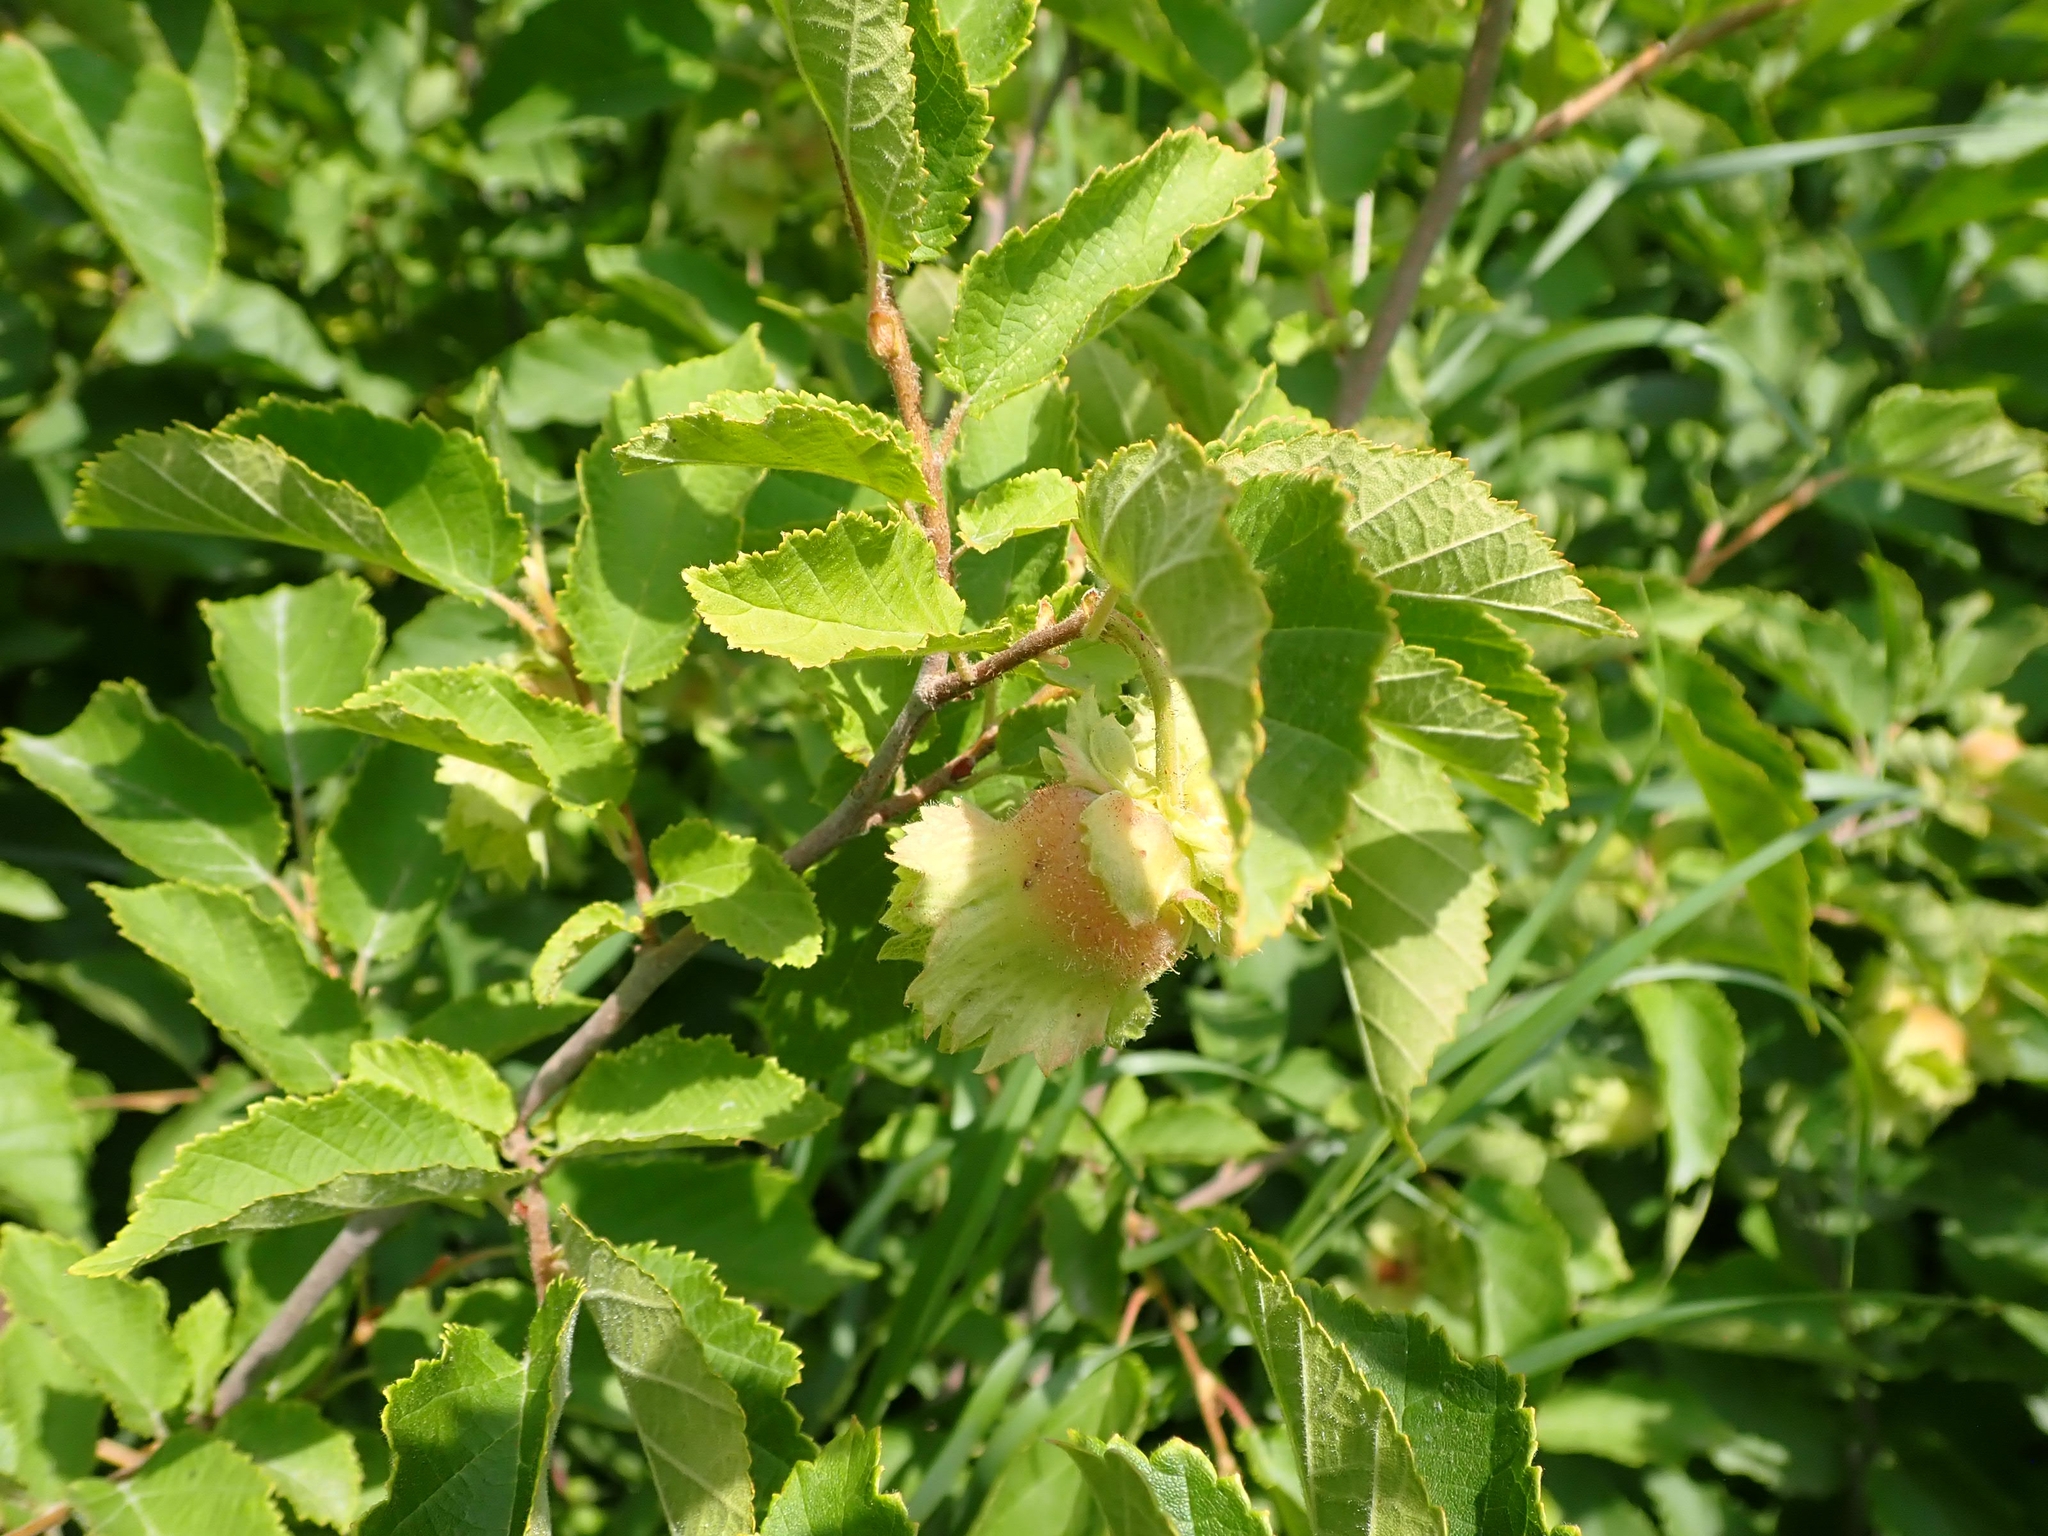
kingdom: Plantae
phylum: Tracheophyta
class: Magnoliopsida
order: Fagales
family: Betulaceae
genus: Corylus
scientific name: Corylus americana
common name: American hazel
